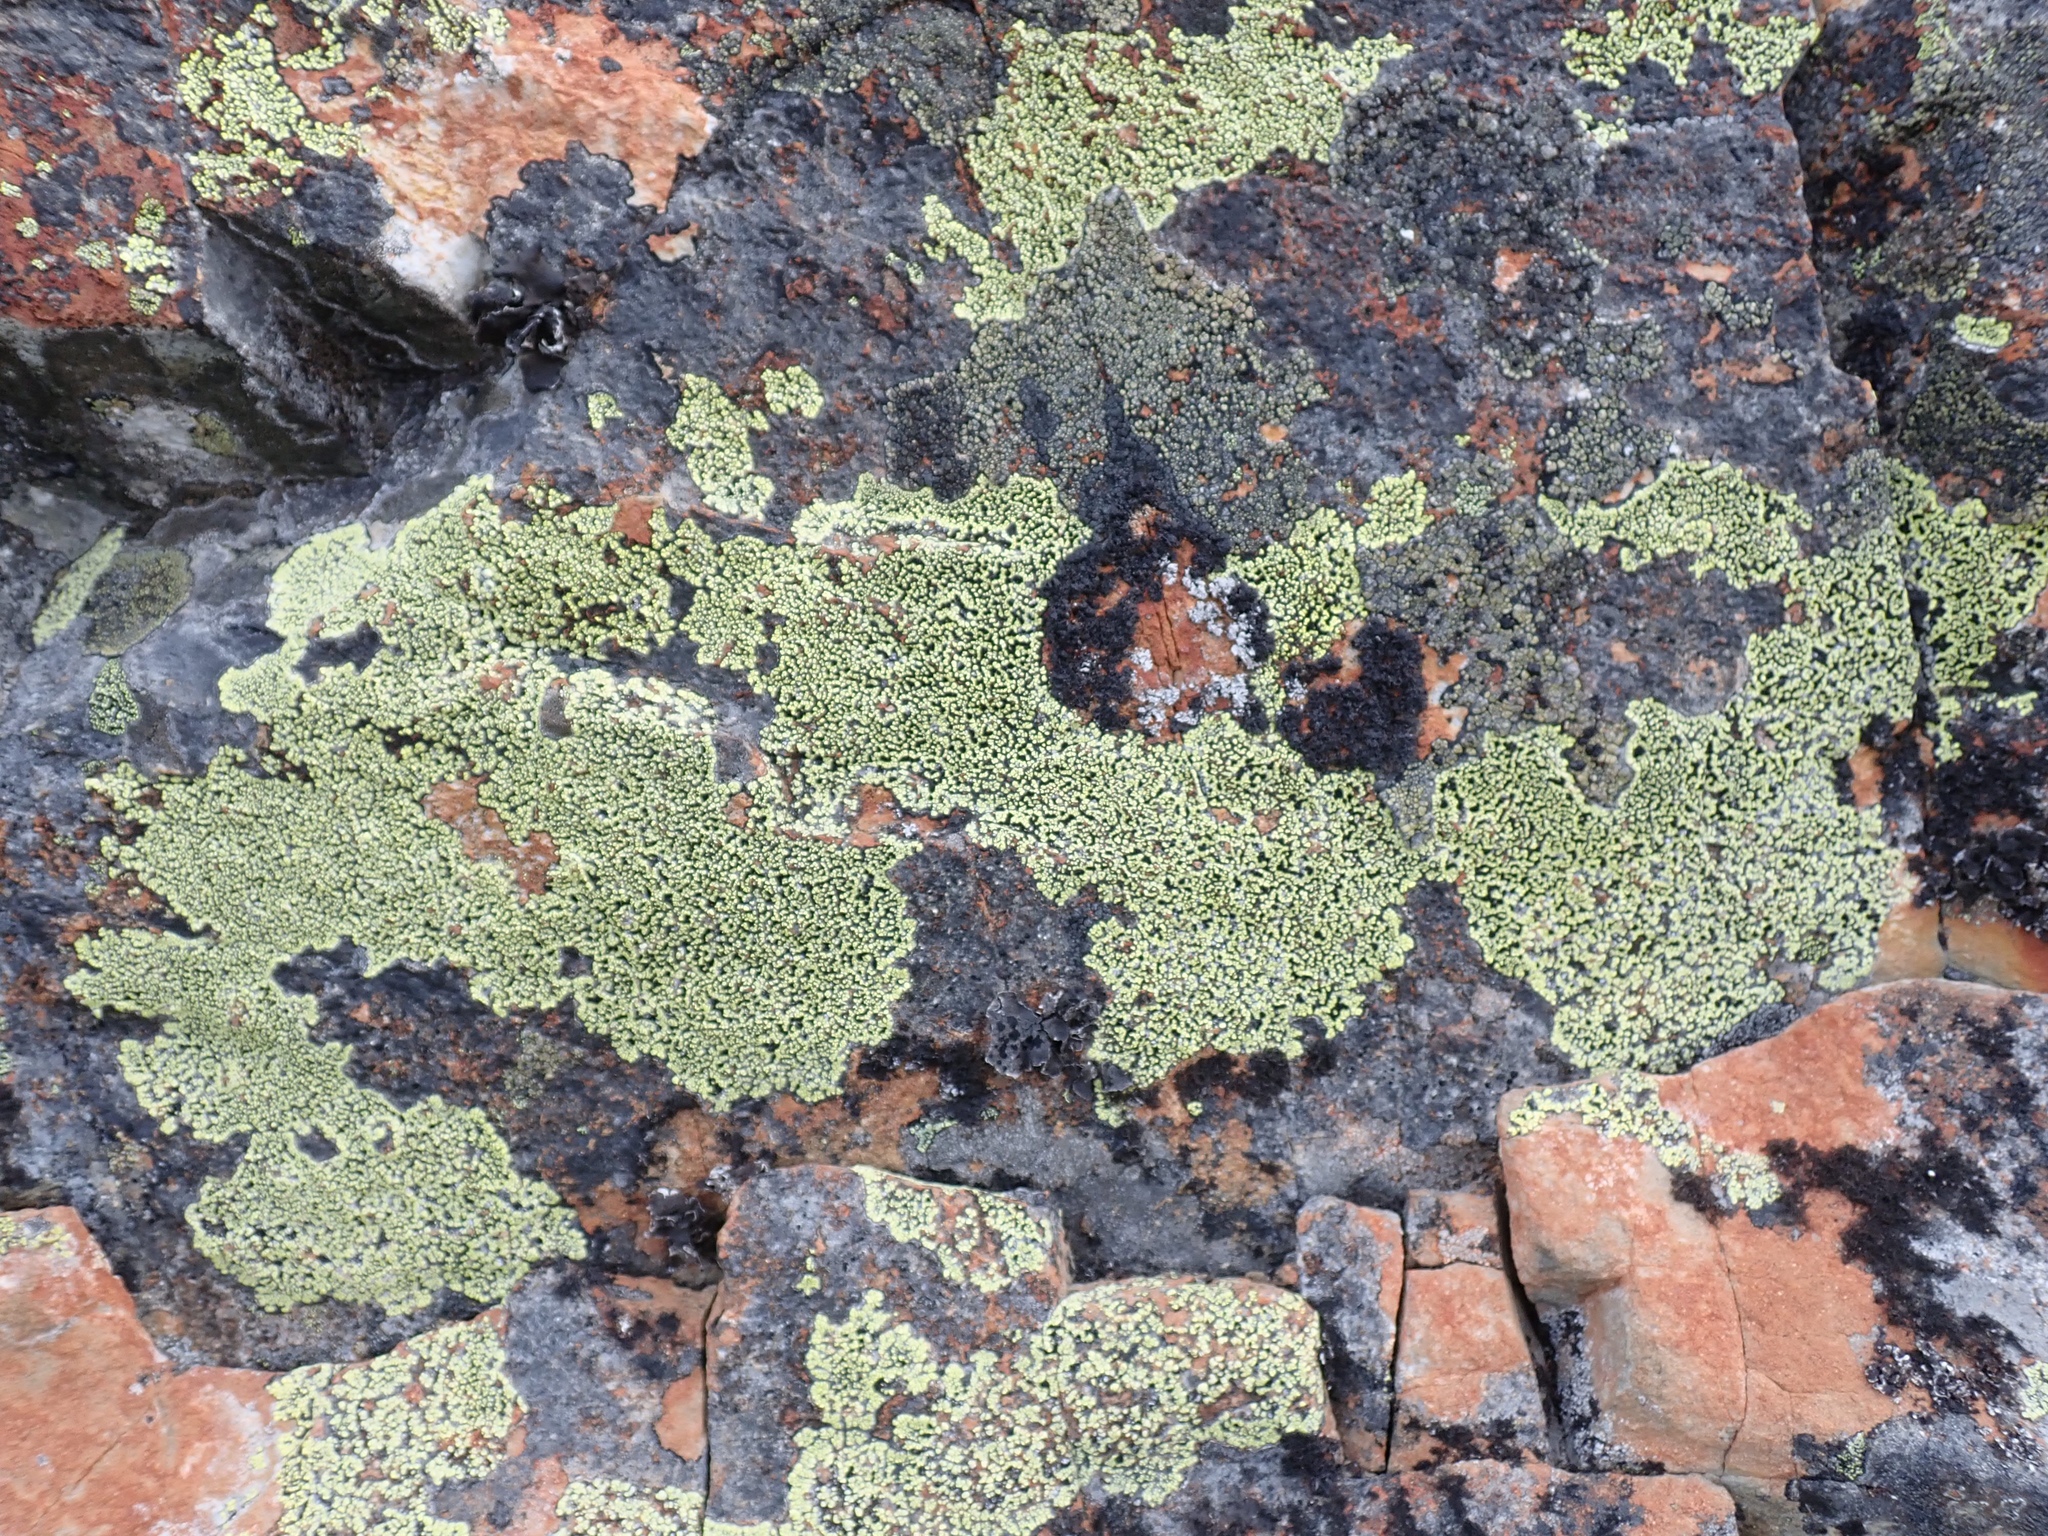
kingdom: Fungi
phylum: Ascomycota
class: Lecanoromycetes
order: Rhizocarpales
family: Rhizocarpaceae
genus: Rhizocarpon
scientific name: Rhizocarpon geographicum
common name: Yellow map lichen
